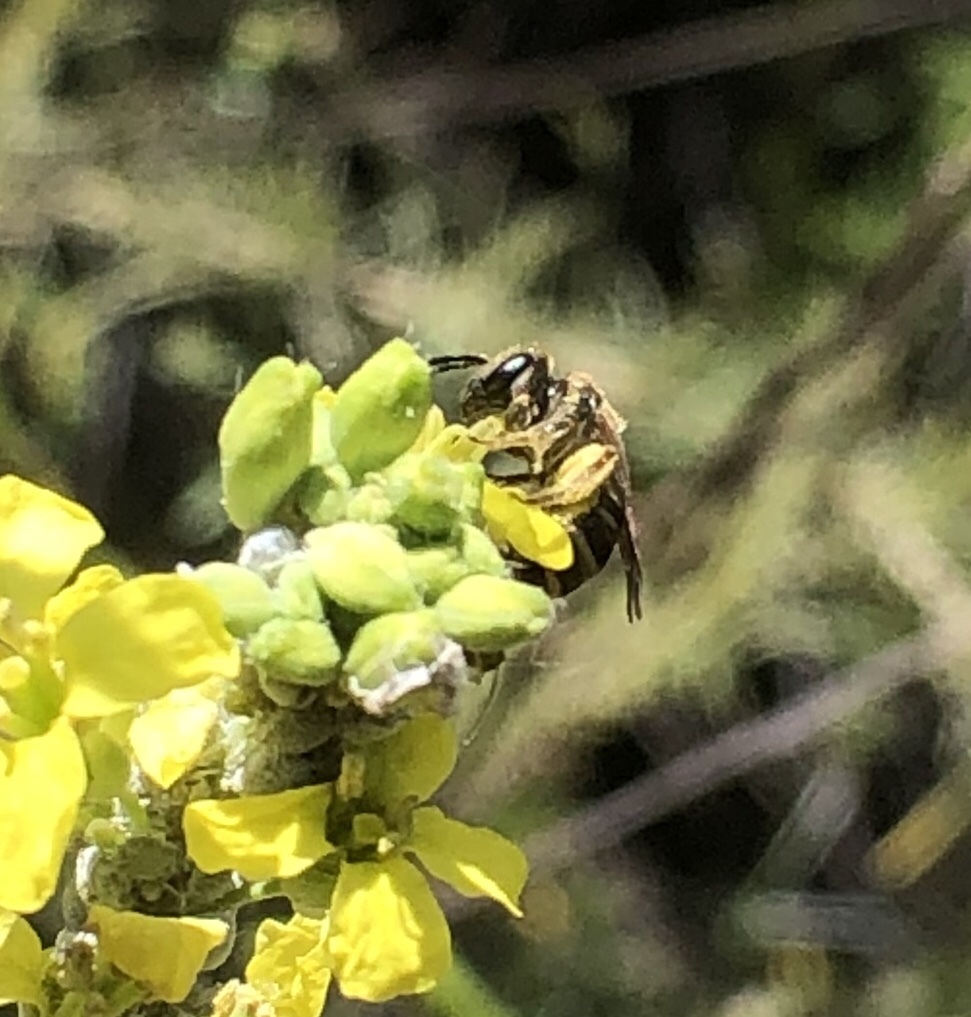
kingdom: Animalia
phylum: Arthropoda
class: Insecta
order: Hymenoptera
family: Halictidae
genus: Halictus
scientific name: Halictus tripartitus
